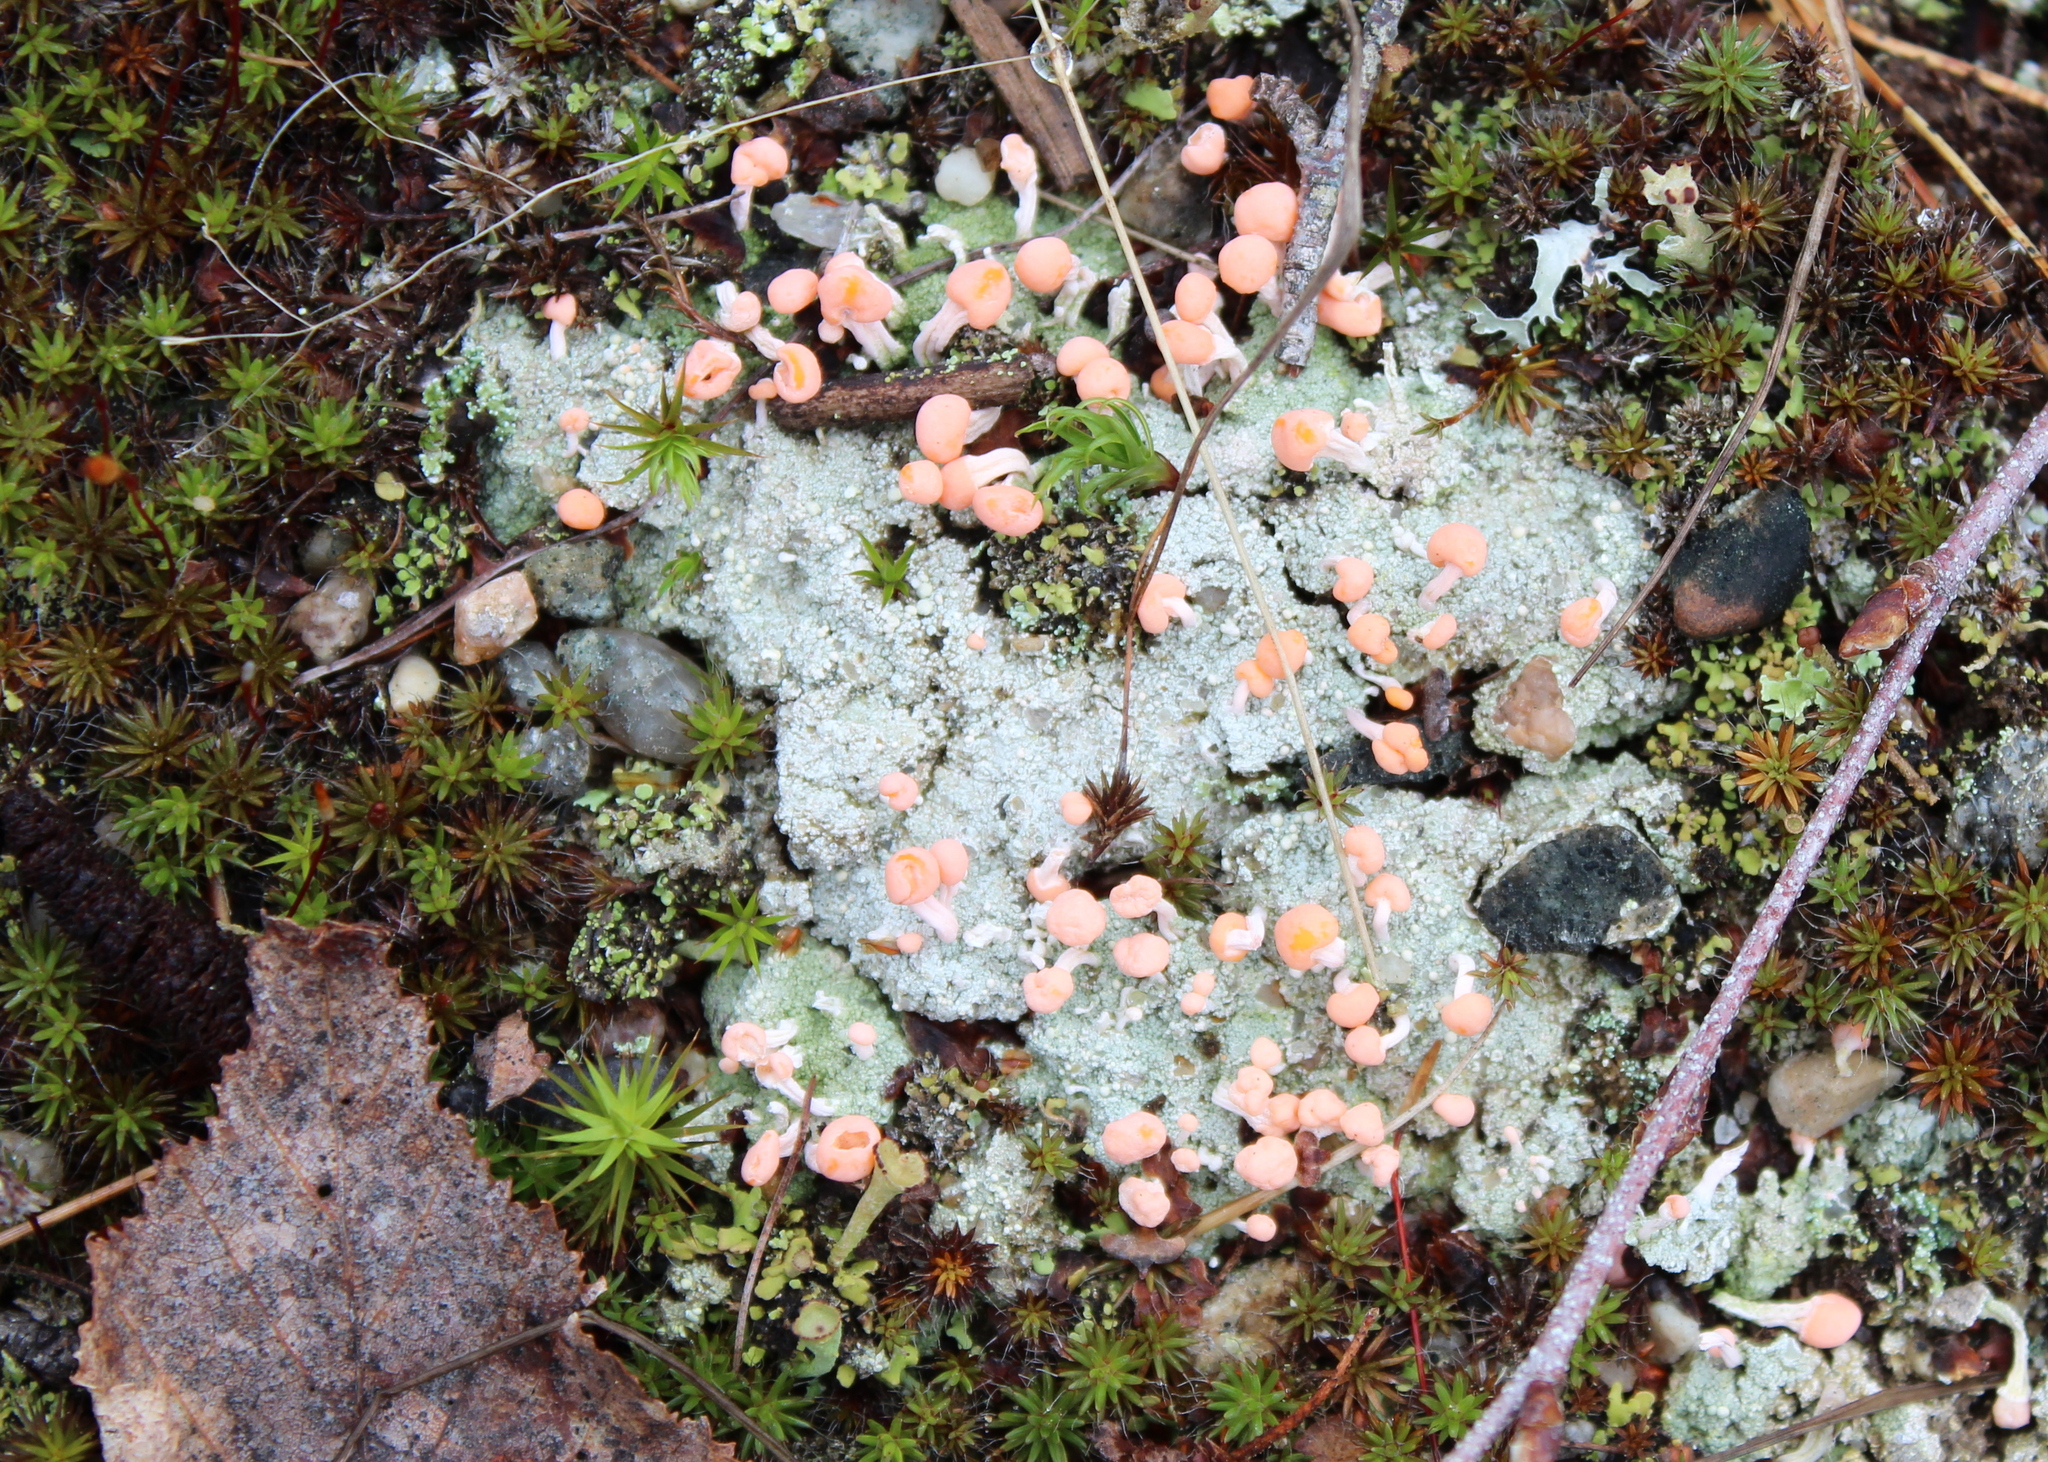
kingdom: Fungi
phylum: Ascomycota
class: Lecanoromycetes
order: Pertusariales
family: Icmadophilaceae
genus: Dibaeis
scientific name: Dibaeis baeomyces
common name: Pink earth lichen
